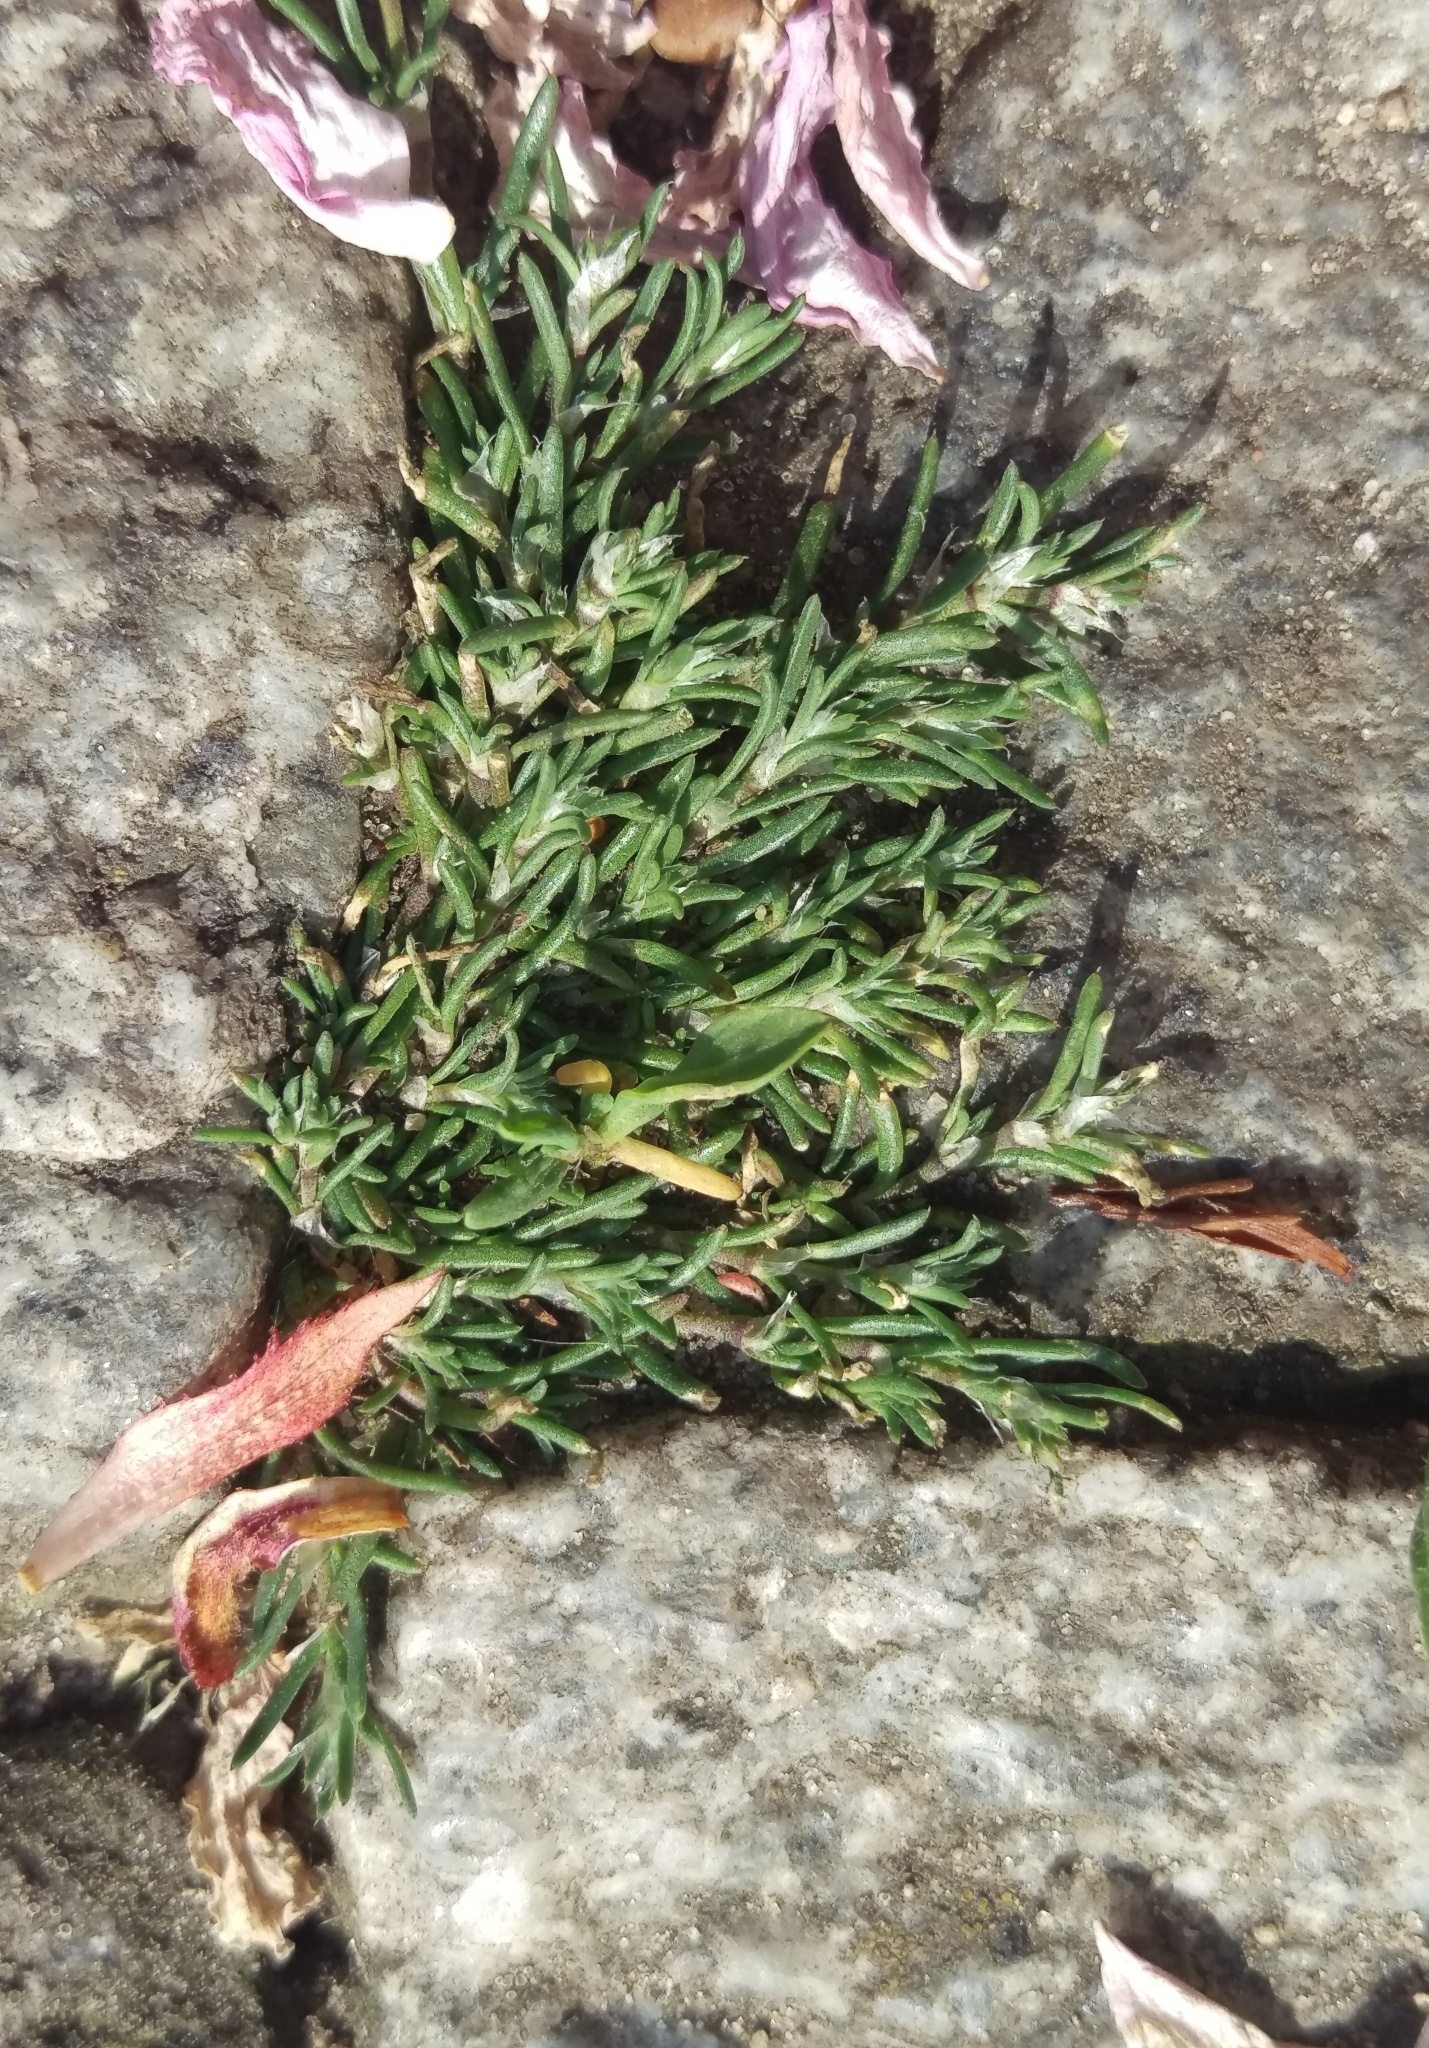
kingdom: Plantae
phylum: Tracheophyta
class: Magnoliopsida
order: Caryophyllales
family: Caryophyllaceae
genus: Spergularia
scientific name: Spergularia rubra
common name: Red sand-spurrey
